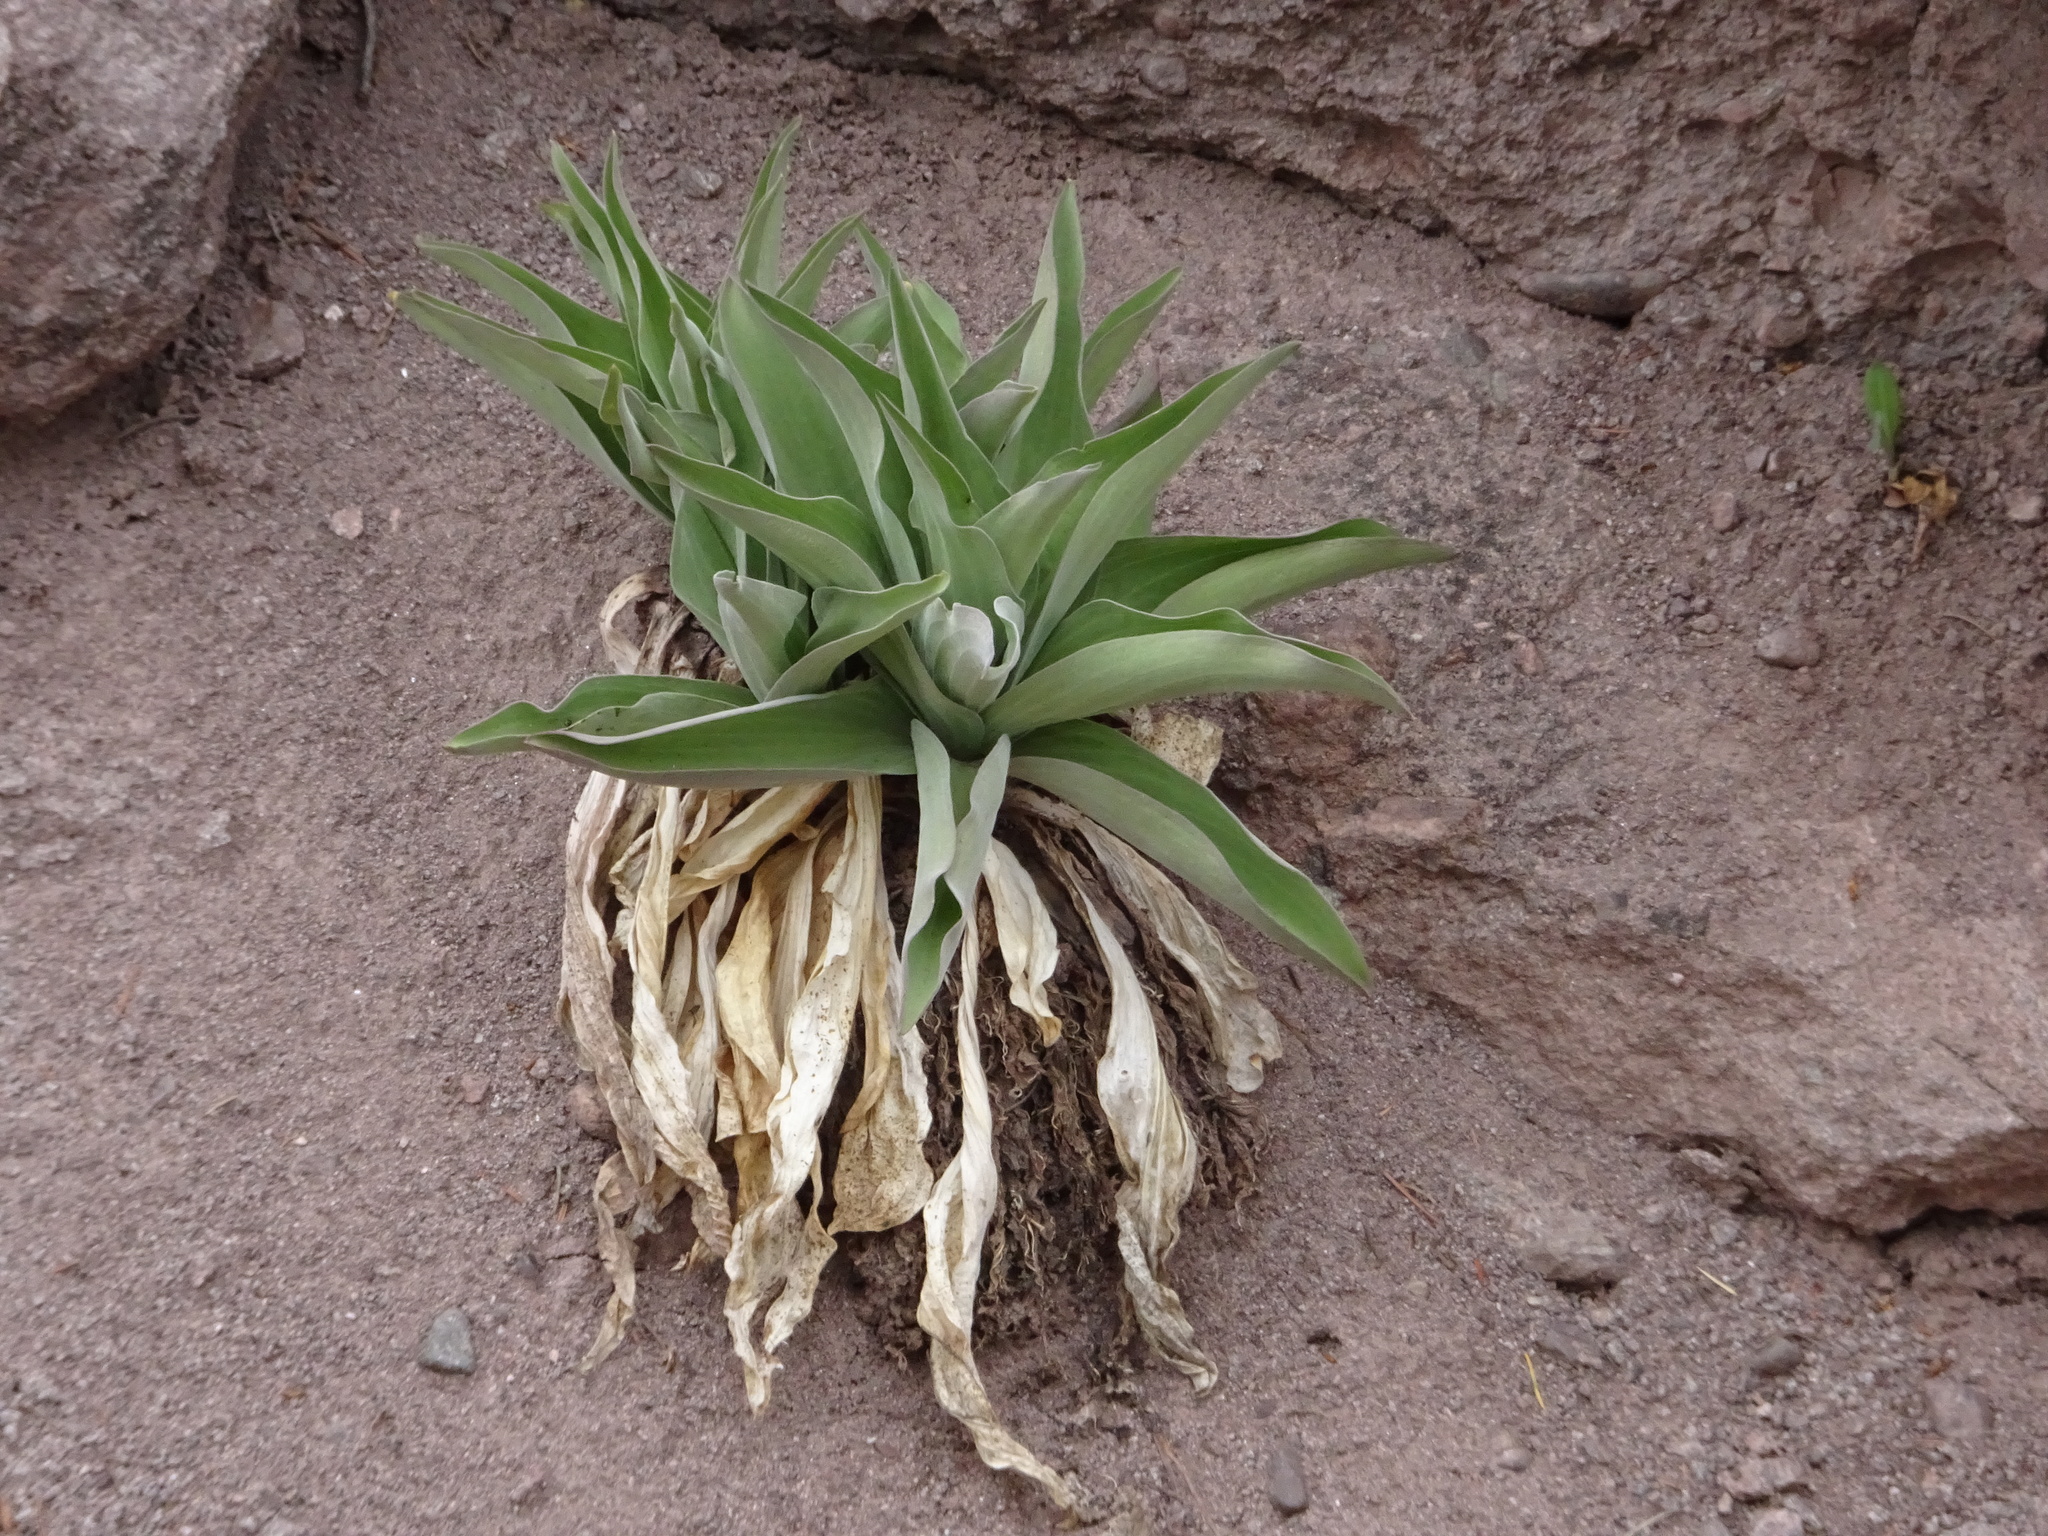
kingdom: Plantae
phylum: Tracheophyta
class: Magnoliopsida
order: Gentianales
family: Gentianaceae
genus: Frasera
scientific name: Frasera speciosa
